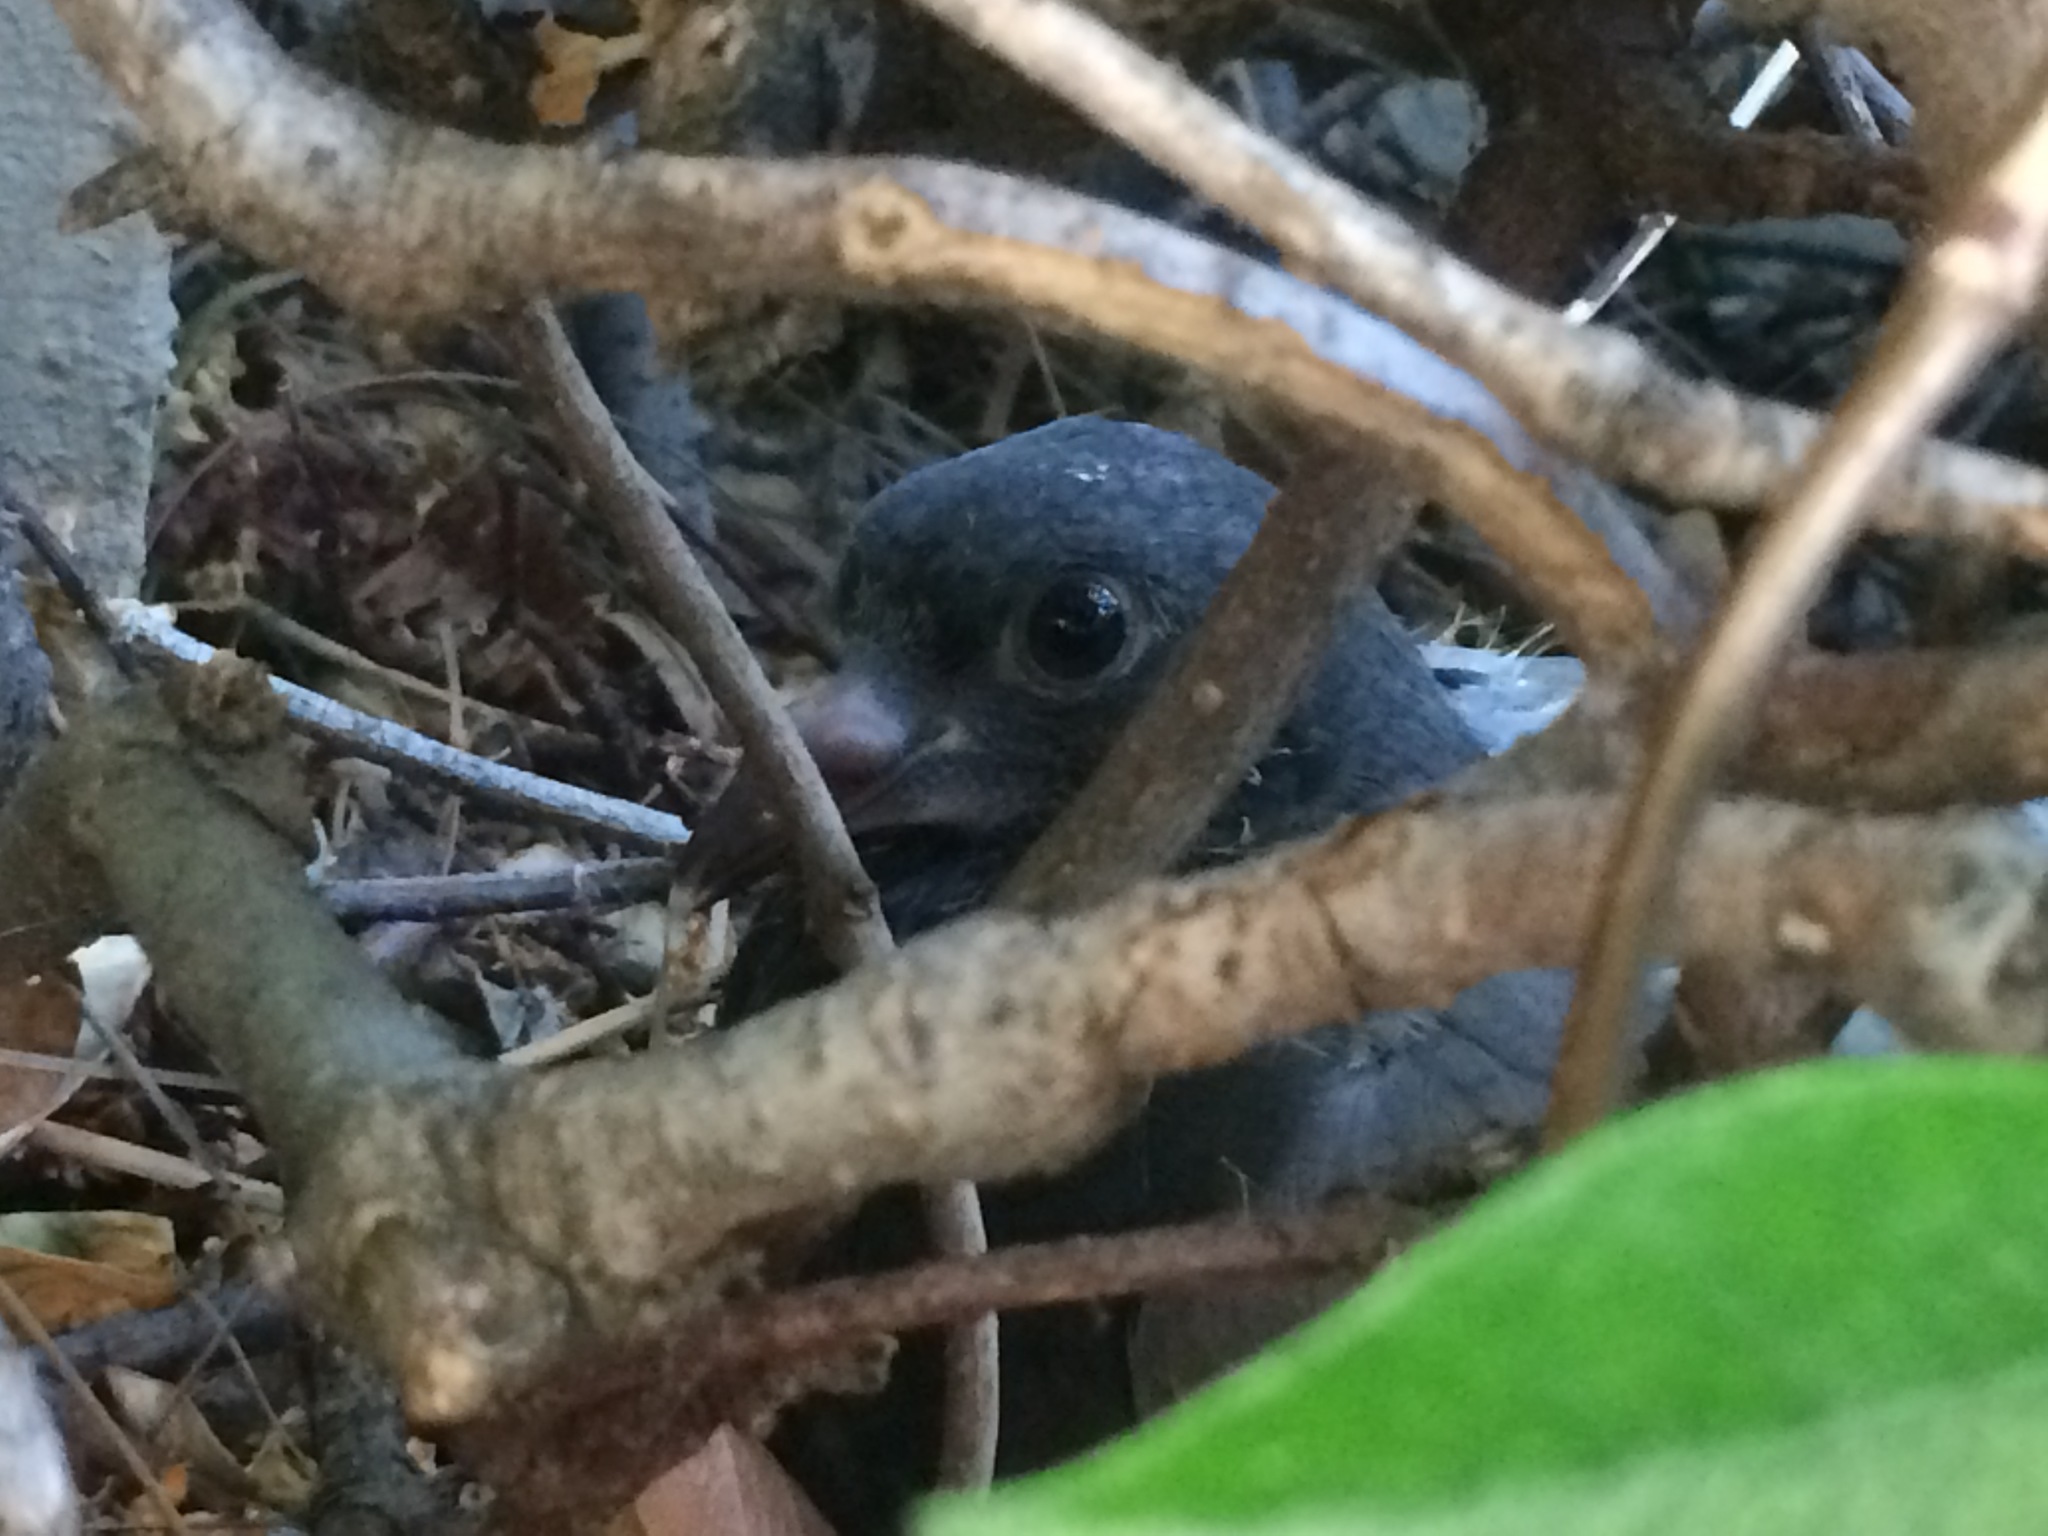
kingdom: Animalia
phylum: Chordata
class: Aves
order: Columbiformes
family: Columbidae
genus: Columba
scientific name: Columba livia
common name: Rock pigeon
